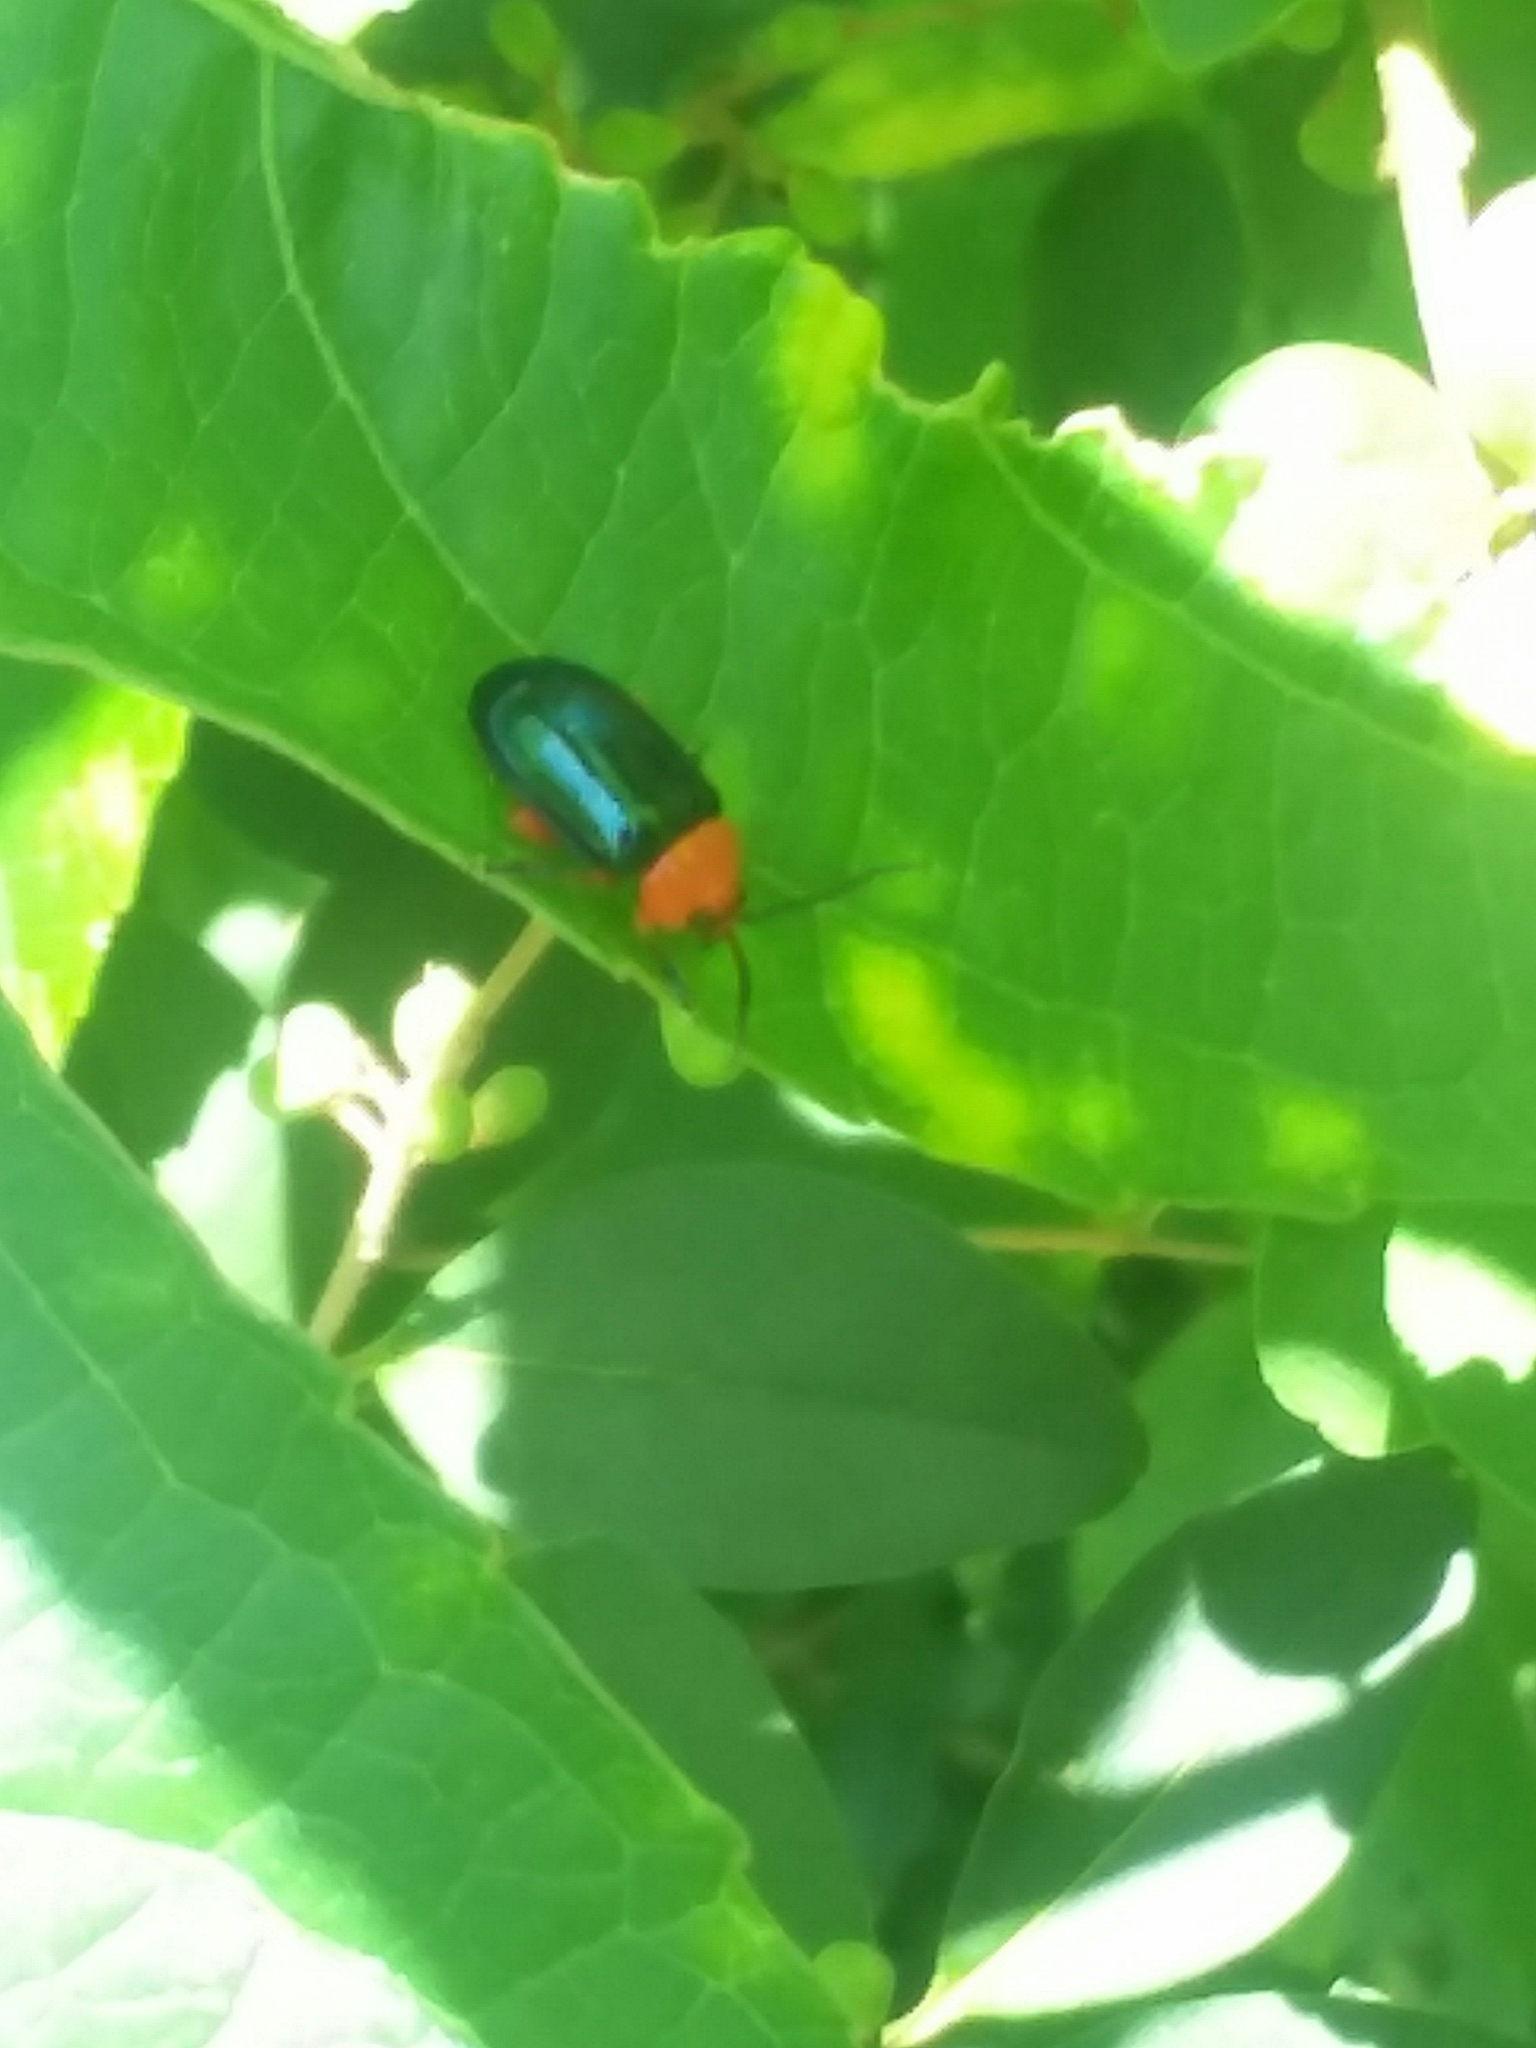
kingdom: Animalia
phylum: Arthropoda
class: Insecta
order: Coleoptera
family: Chrysomelidae
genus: Asphaera
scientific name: Asphaera lustrans
